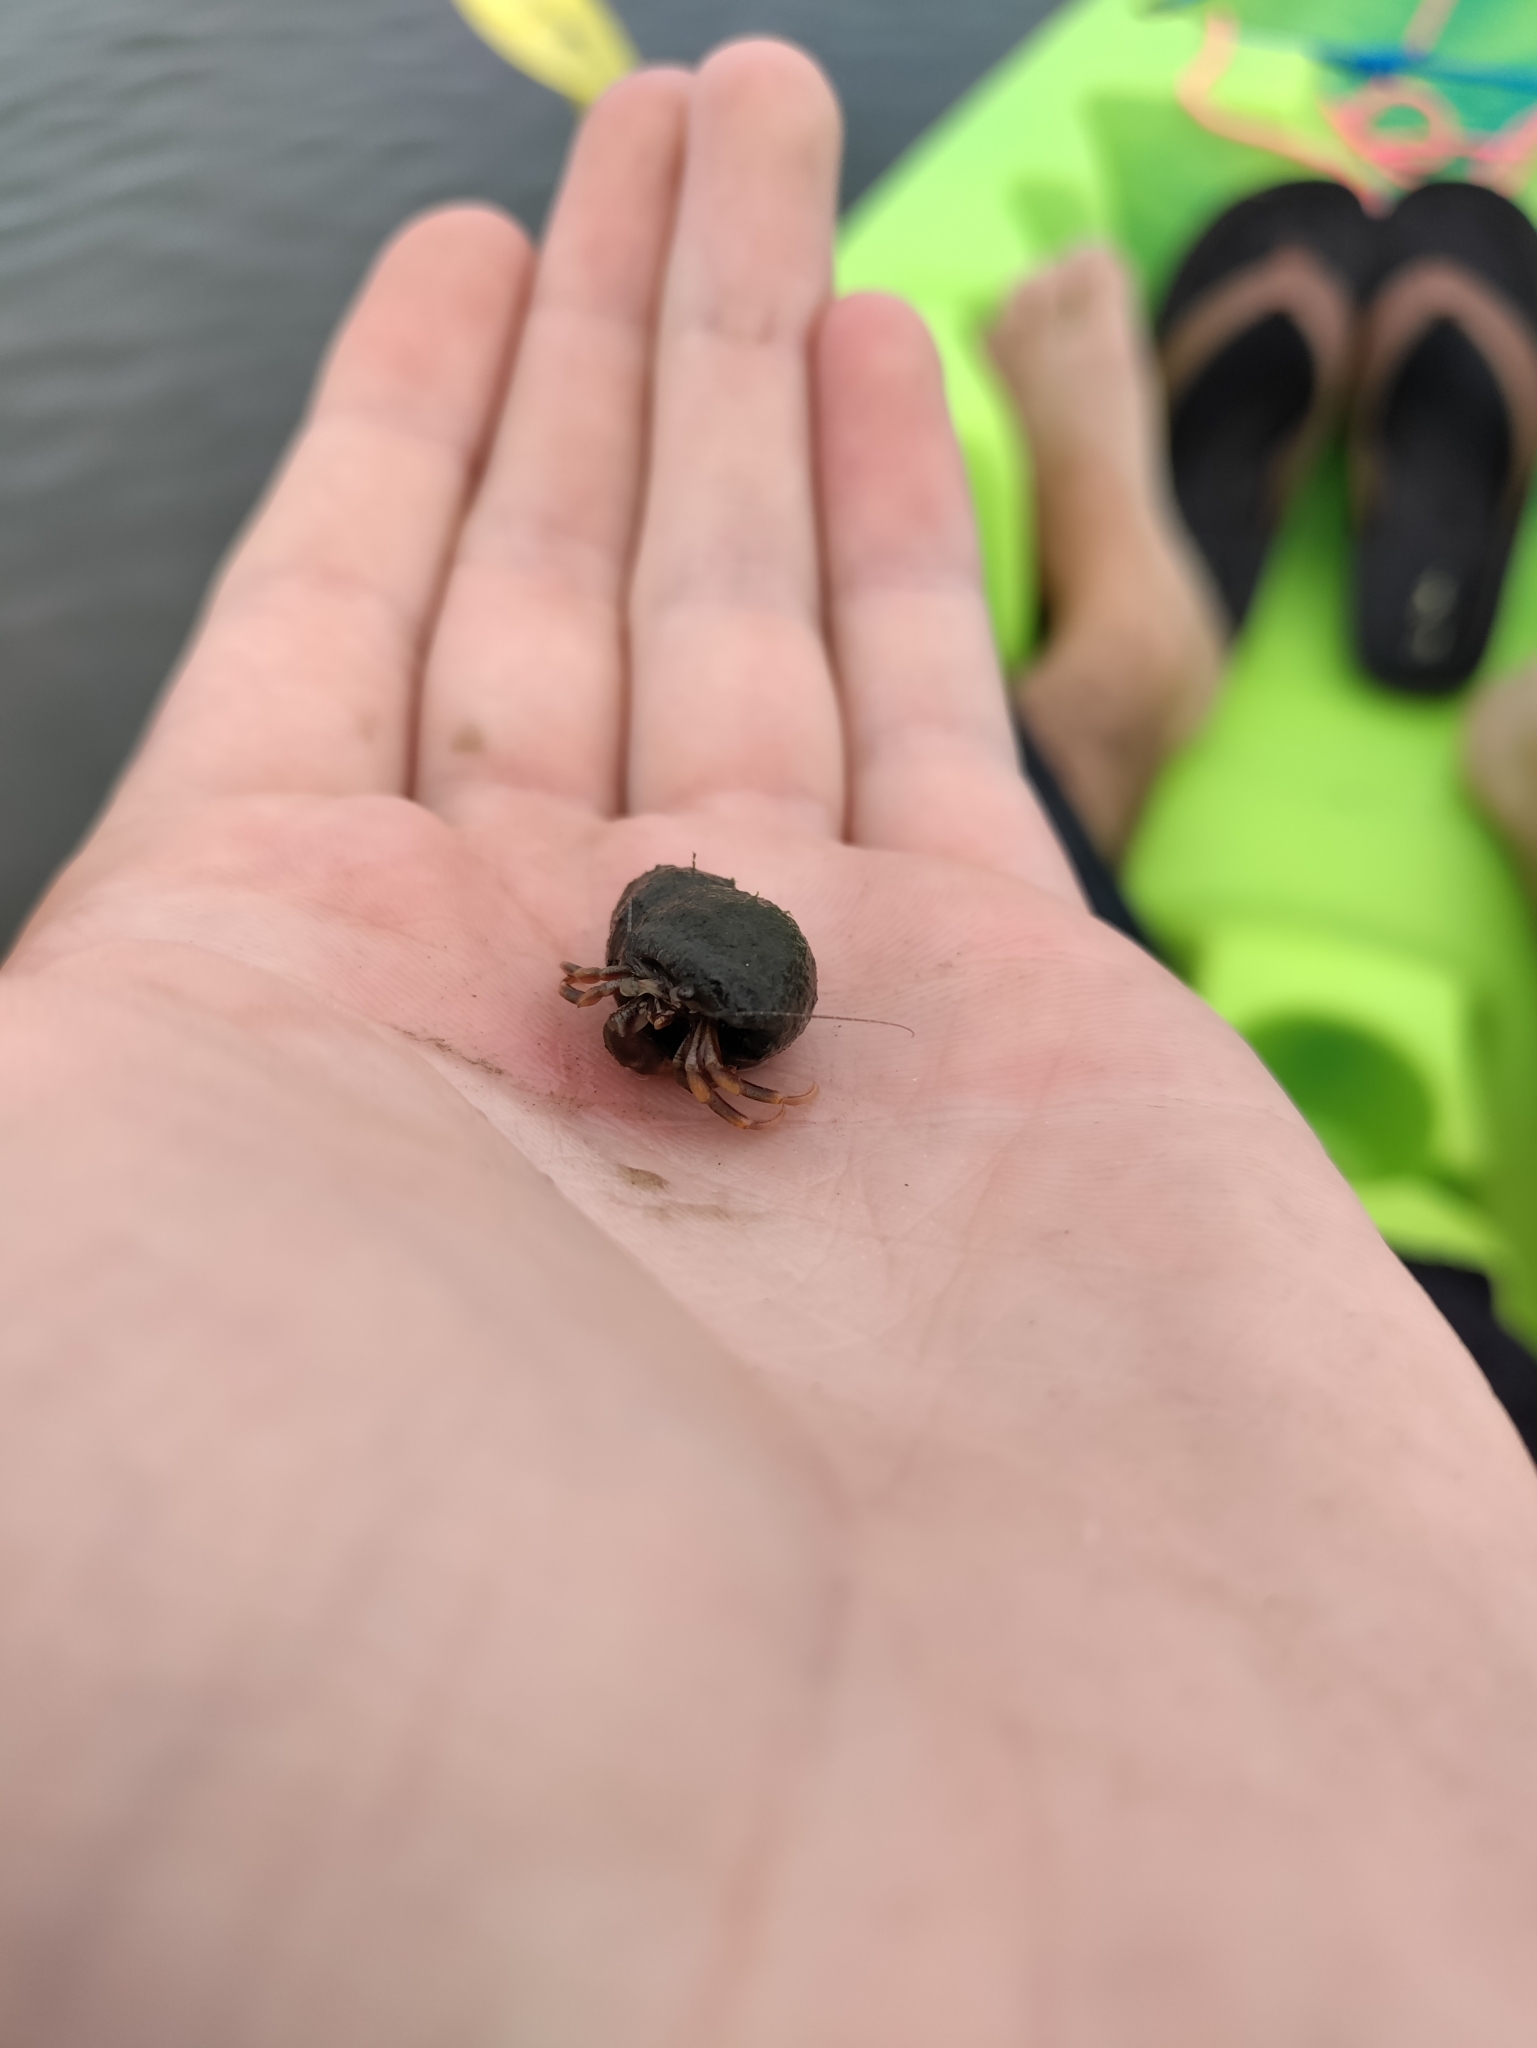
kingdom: Animalia
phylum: Arthropoda
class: Malacostraca
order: Decapoda
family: Paguridae
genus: Pagurus
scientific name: Pagurus longicarpus
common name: Long-armed hermit crab
